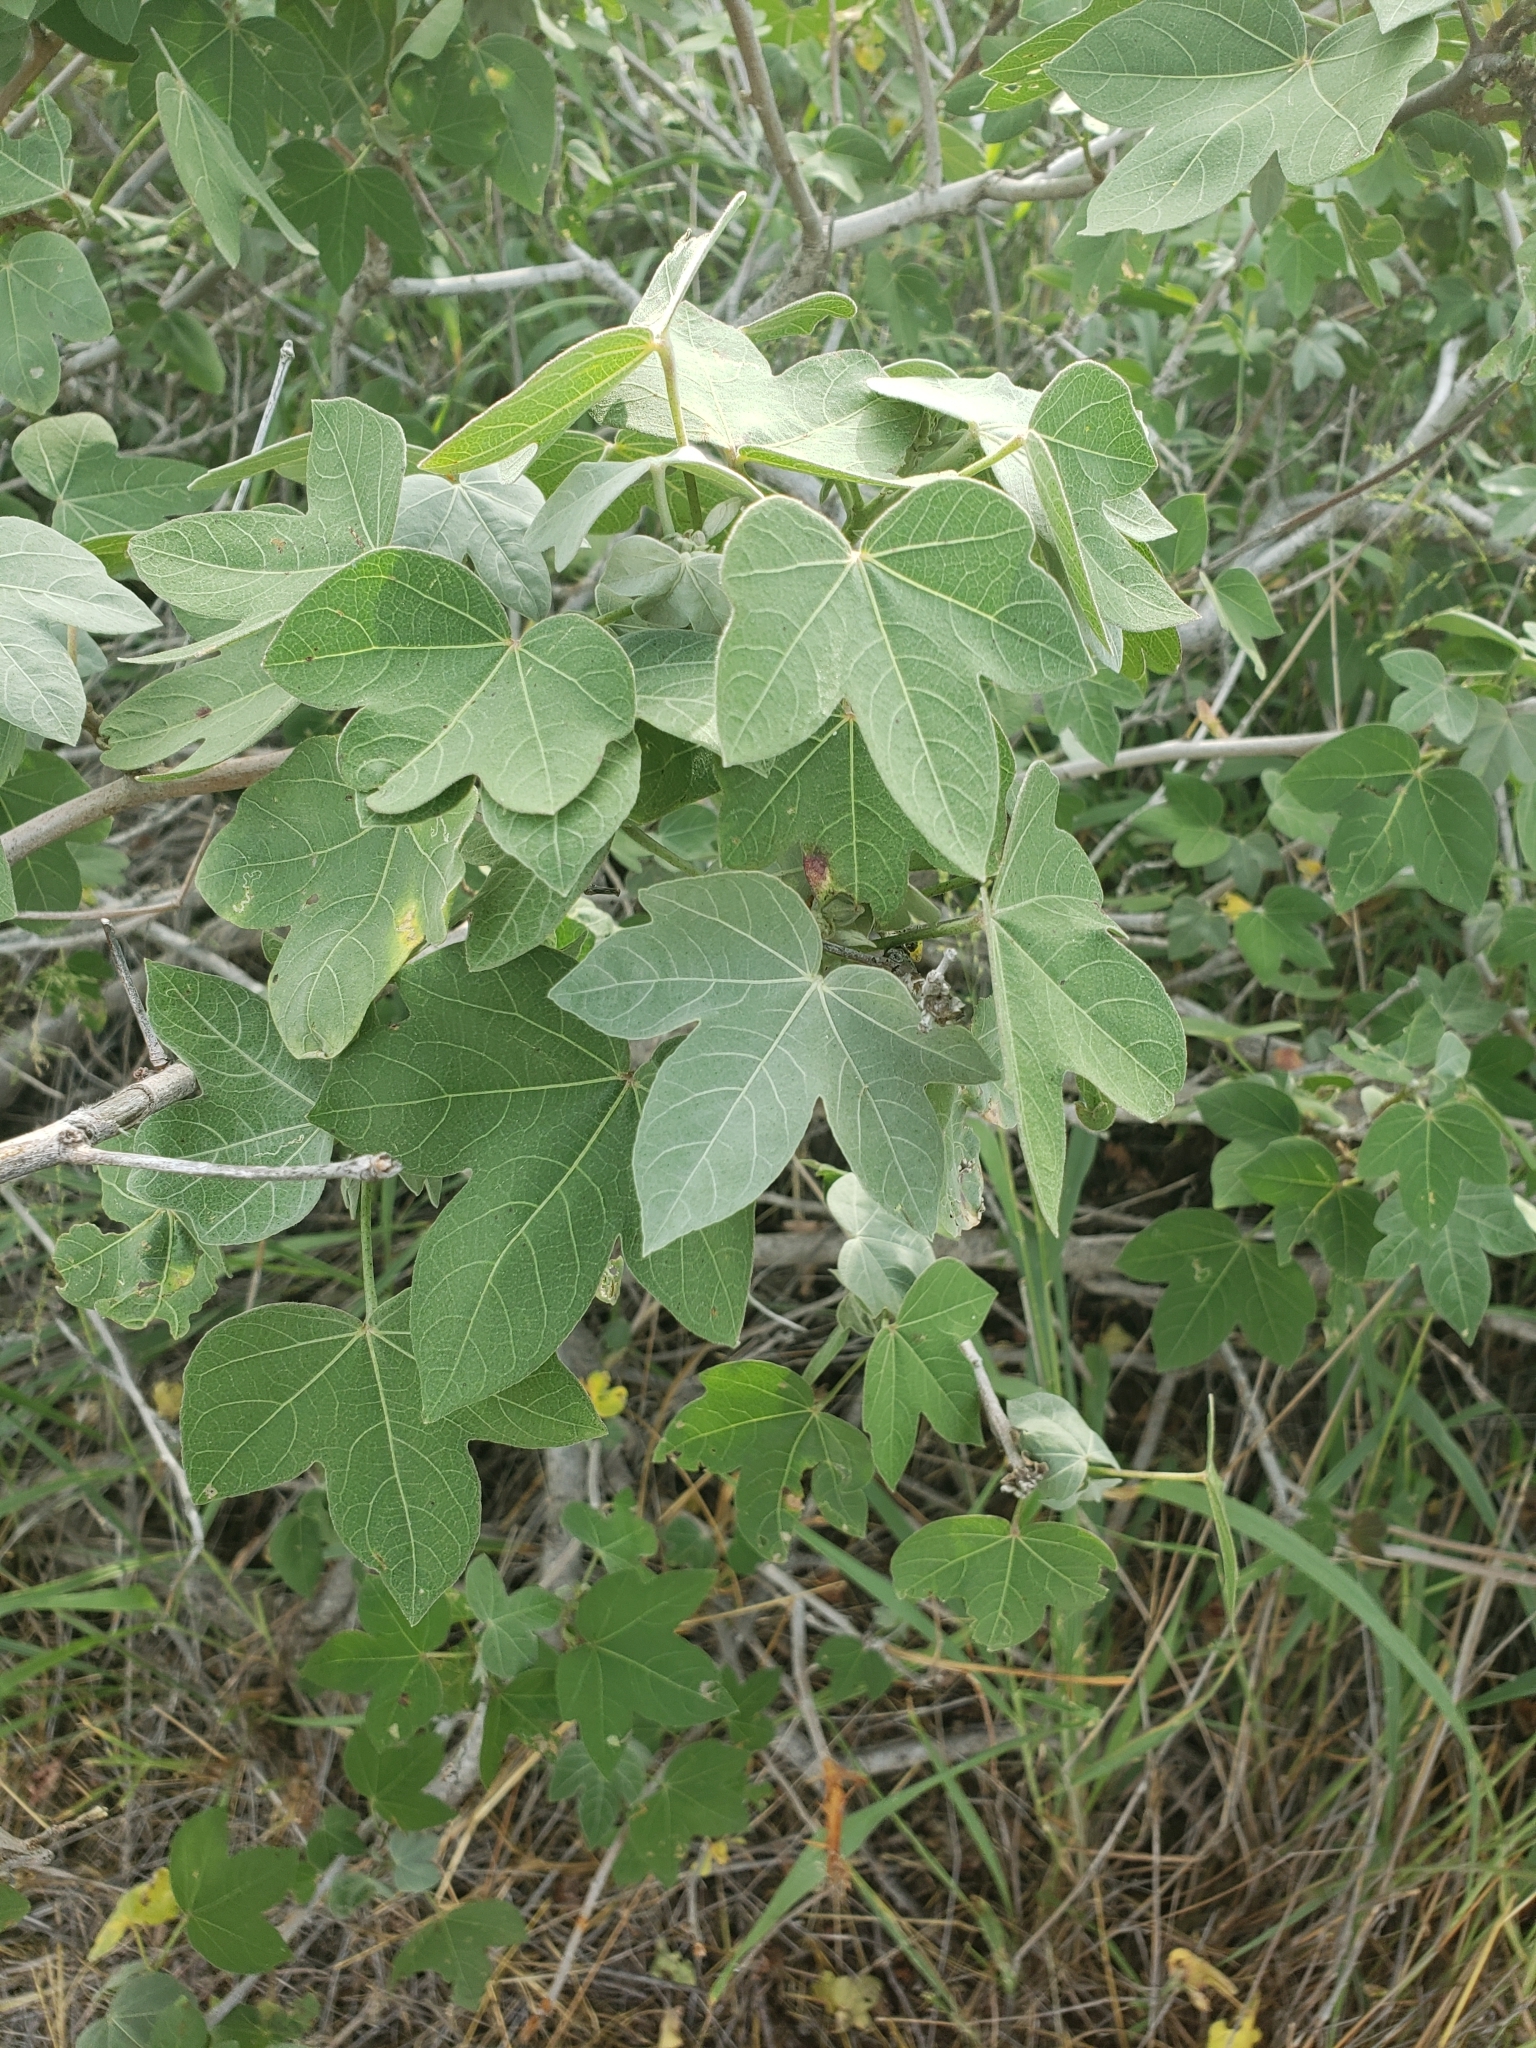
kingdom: Plantae
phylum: Tracheophyta
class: Magnoliopsida
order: Malvales
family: Malvaceae
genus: Gossypium
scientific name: Gossypium tomentosum
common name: Hawaiian cotton
